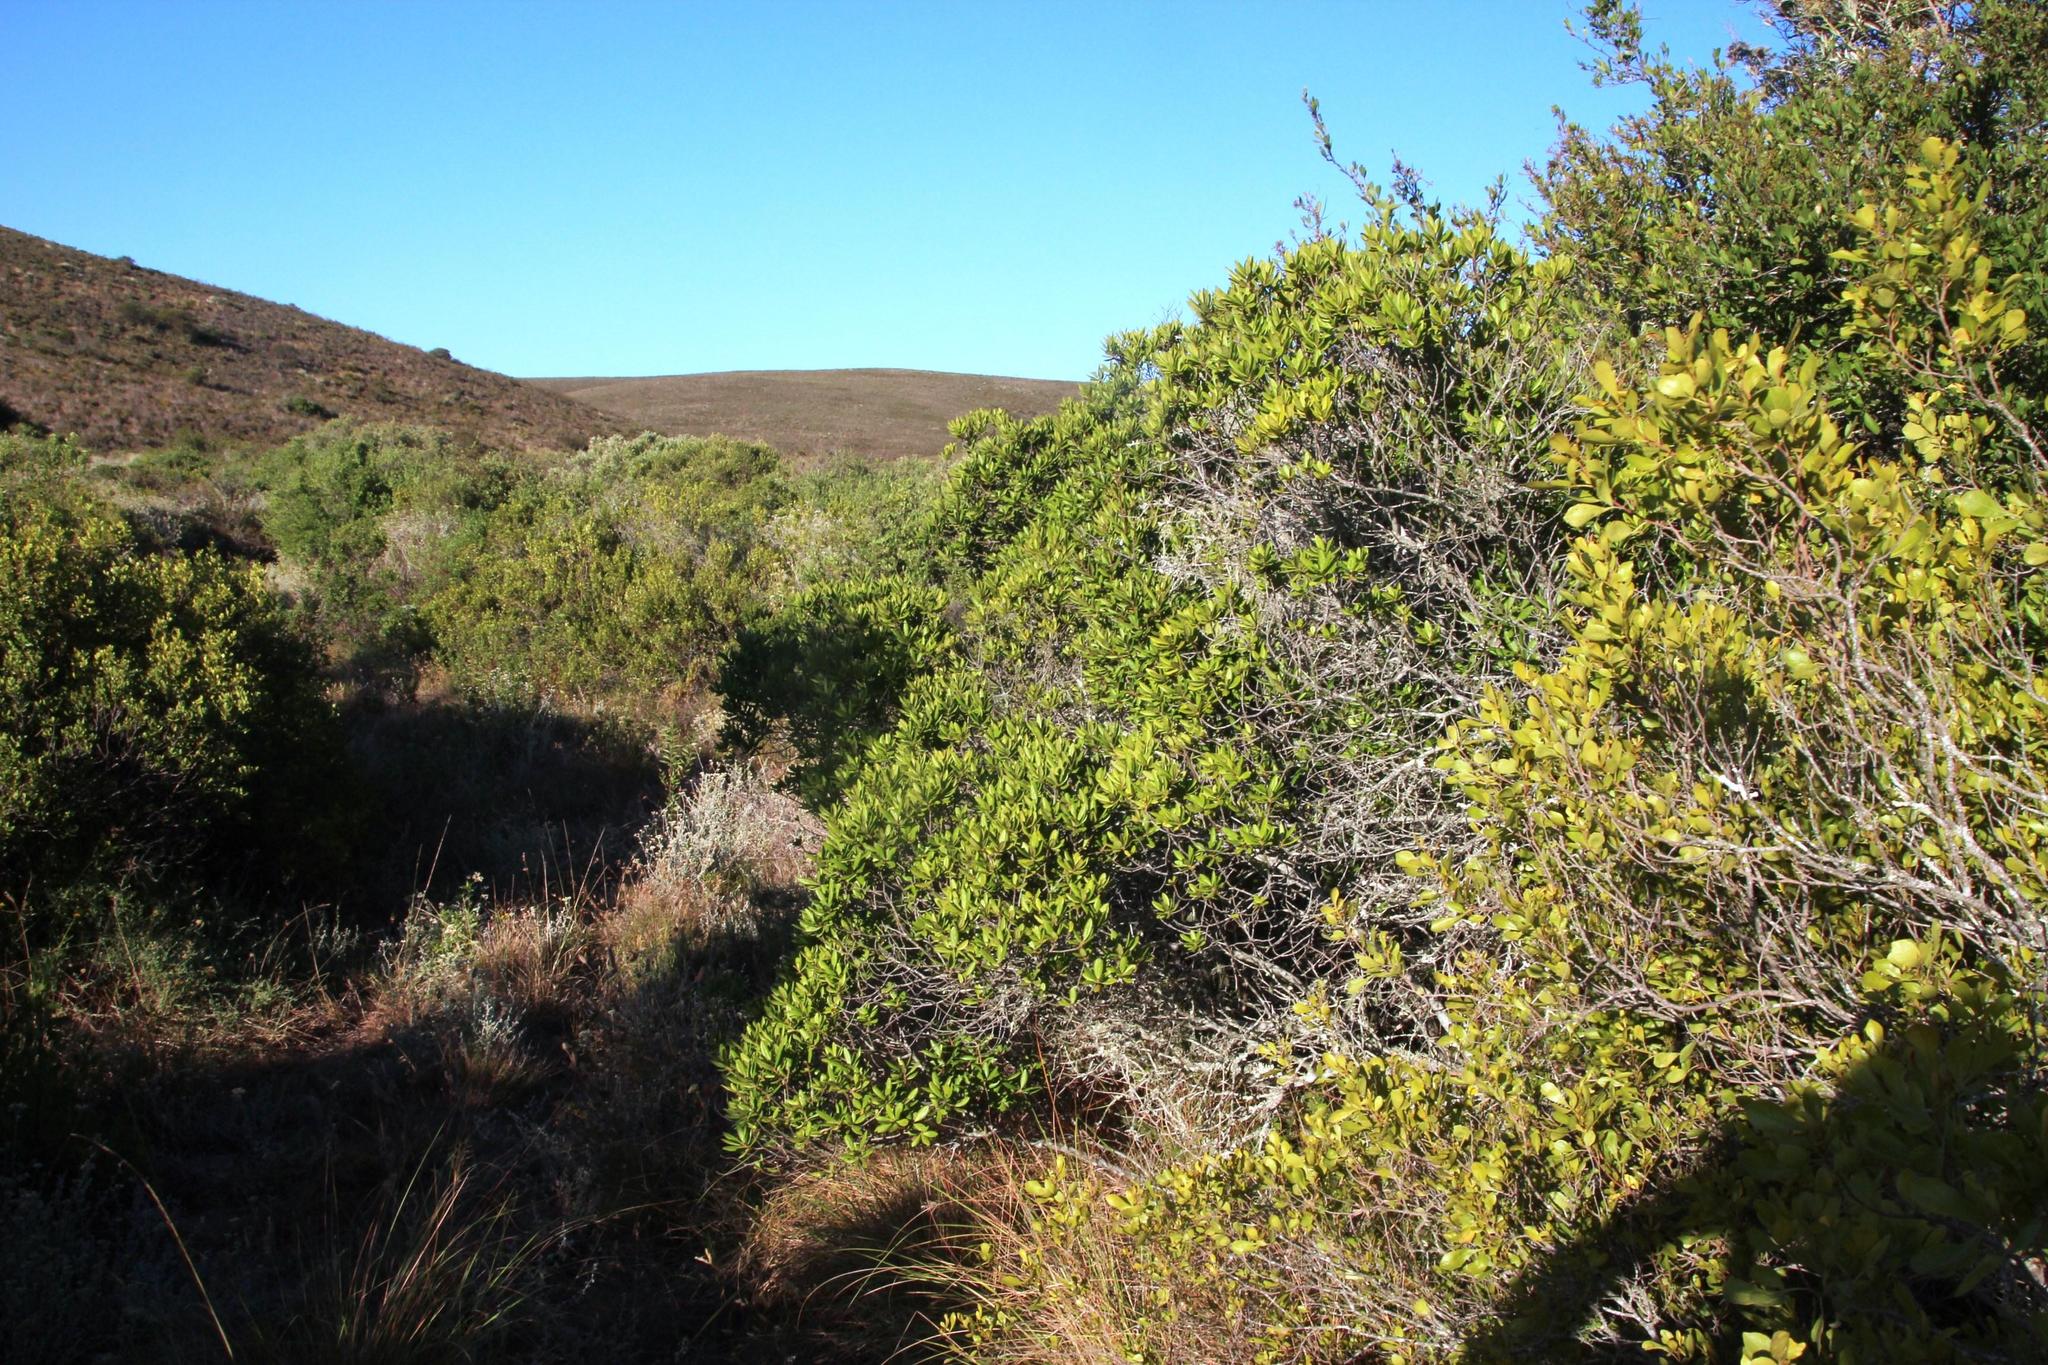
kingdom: Plantae
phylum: Tracheophyta
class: Magnoliopsida
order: Ericales
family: Ebenaceae
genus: Diospyros
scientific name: Diospyros dichrophylla
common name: Common star-apple
